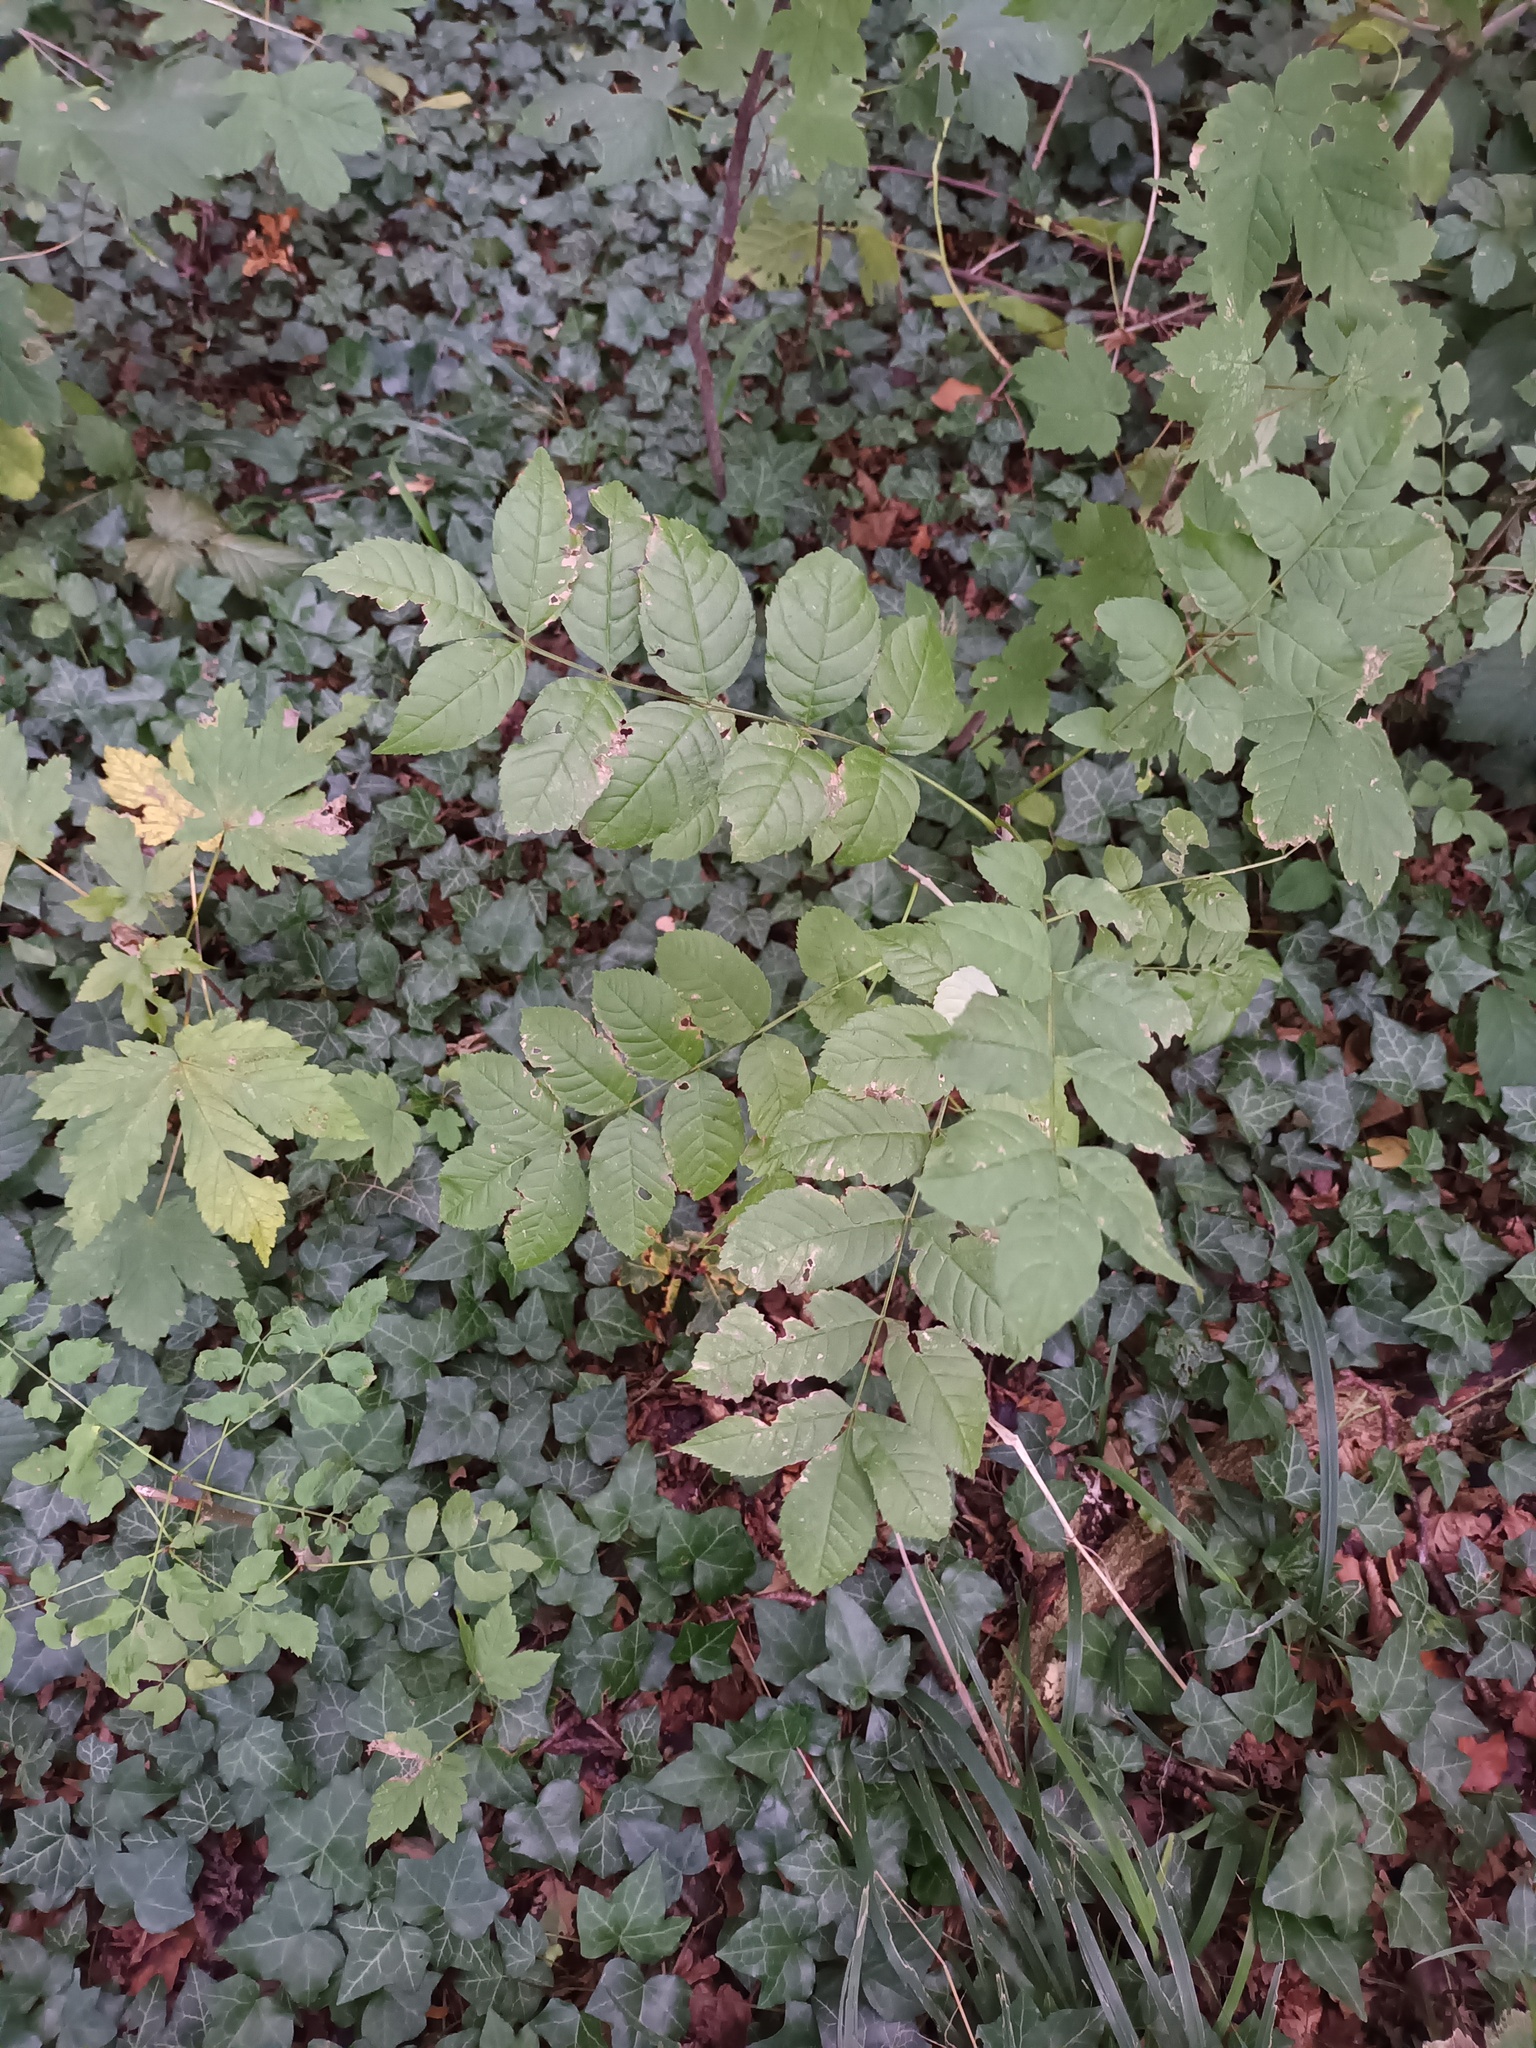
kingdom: Plantae
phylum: Tracheophyta
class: Magnoliopsida
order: Lamiales
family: Oleaceae
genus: Fraxinus
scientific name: Fraxinus excelsior
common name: European ash
